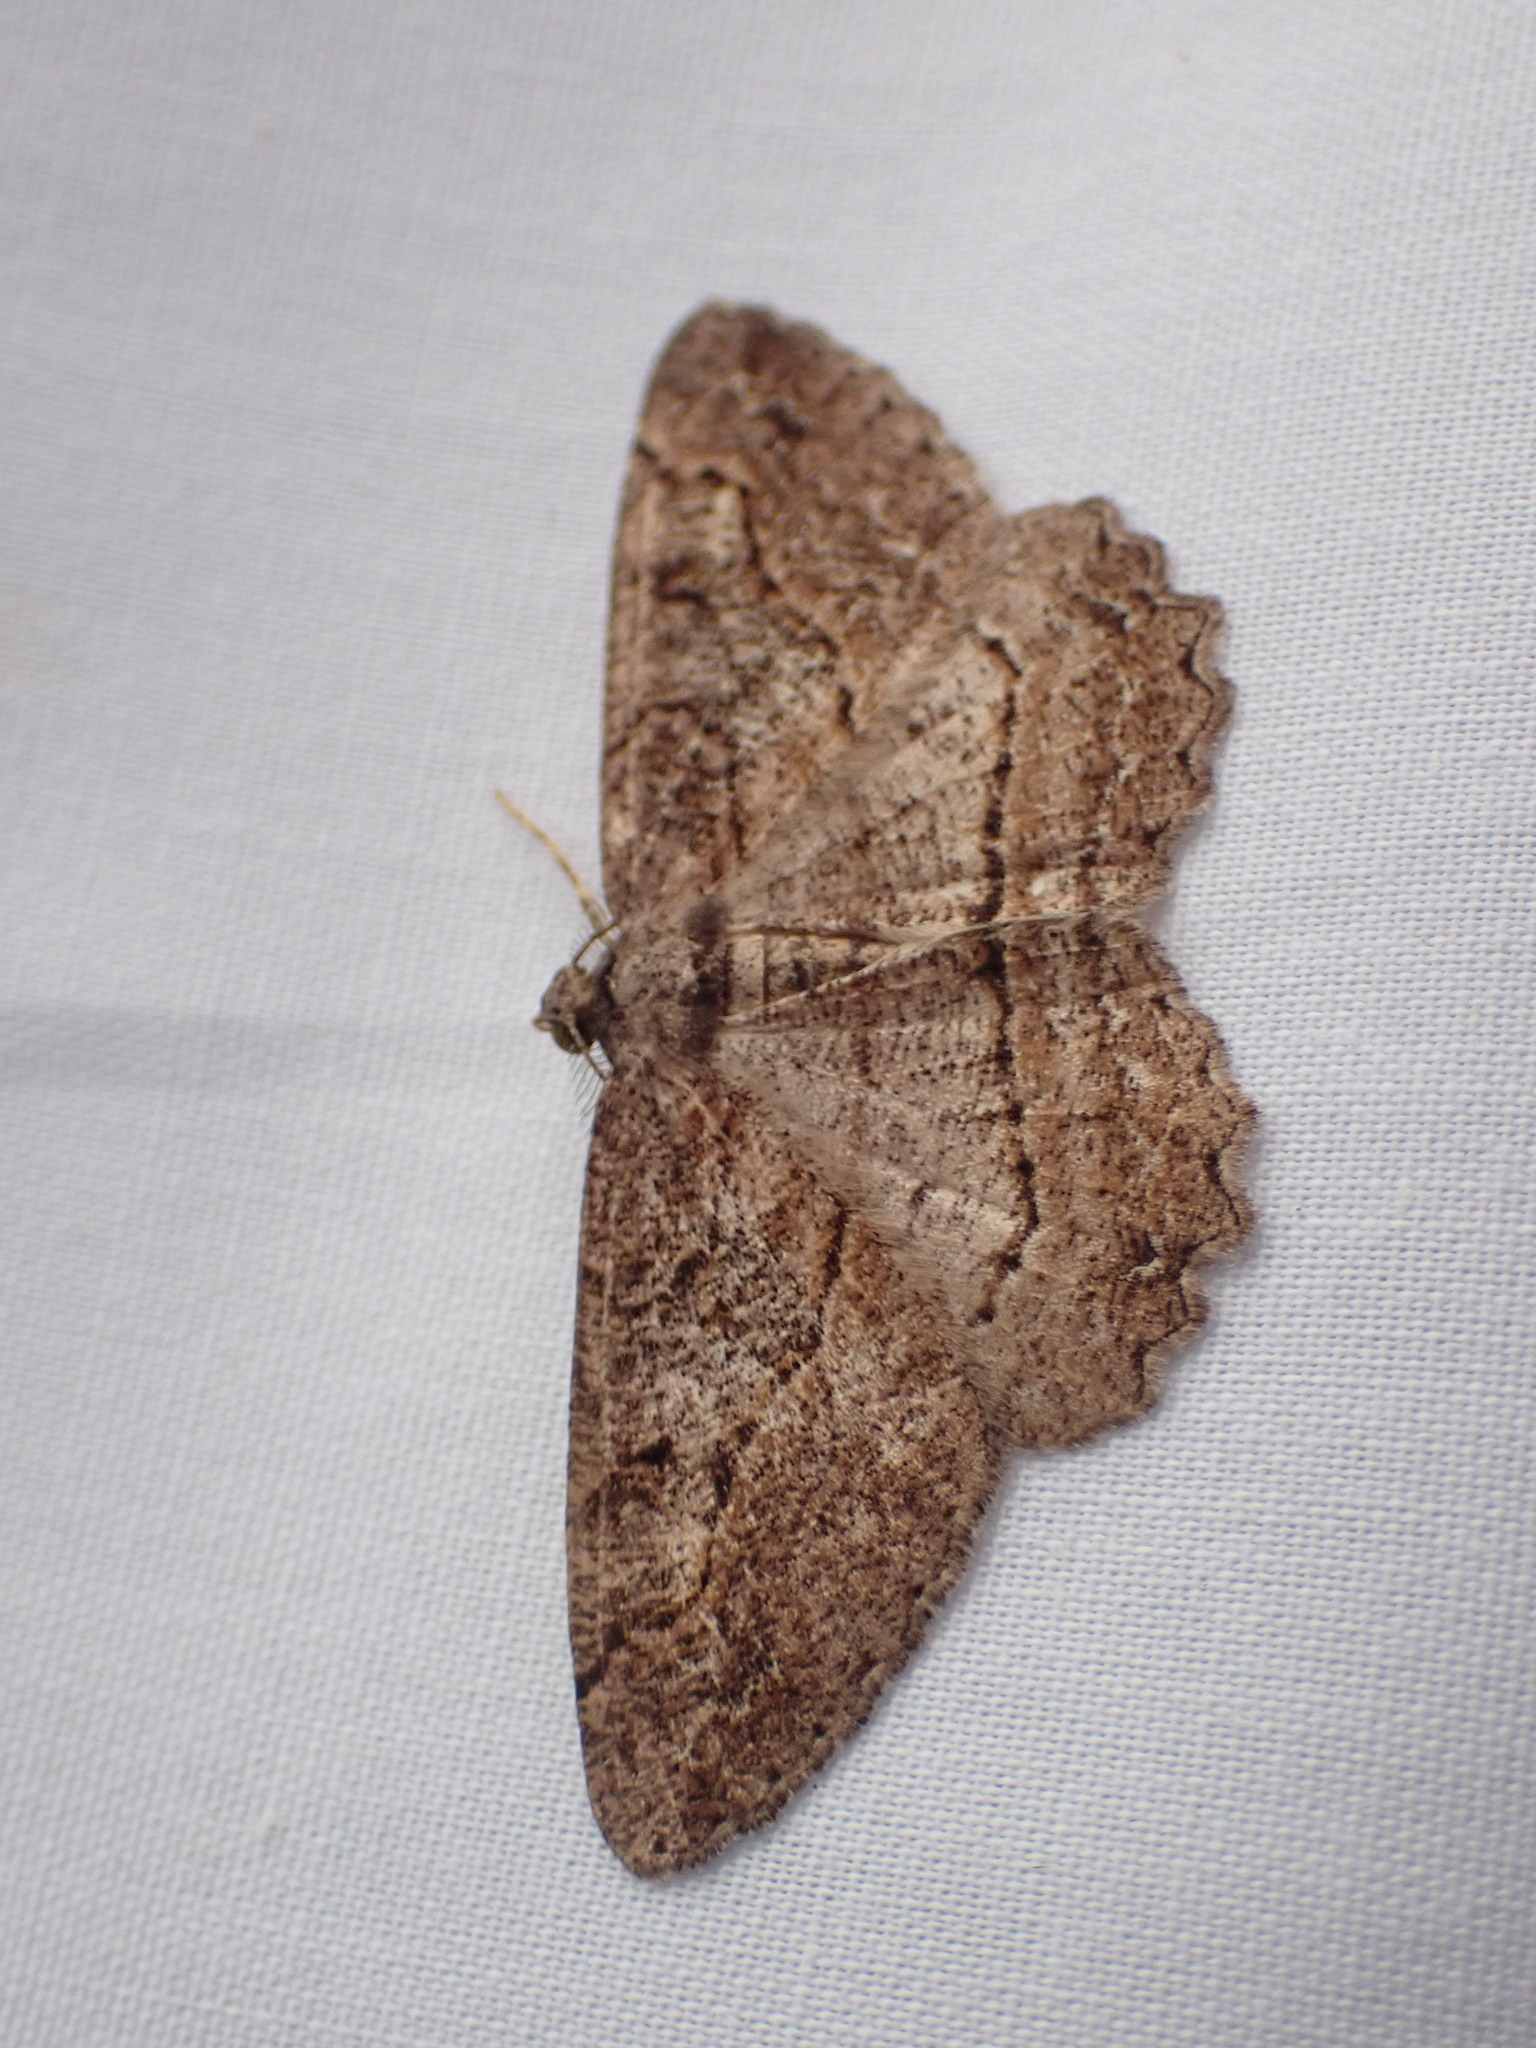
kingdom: Animalia
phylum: Arthropoda
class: Insecta
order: Lepidoptera
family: Geometridae
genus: Neoalcis
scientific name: Neoalcis californiaria
